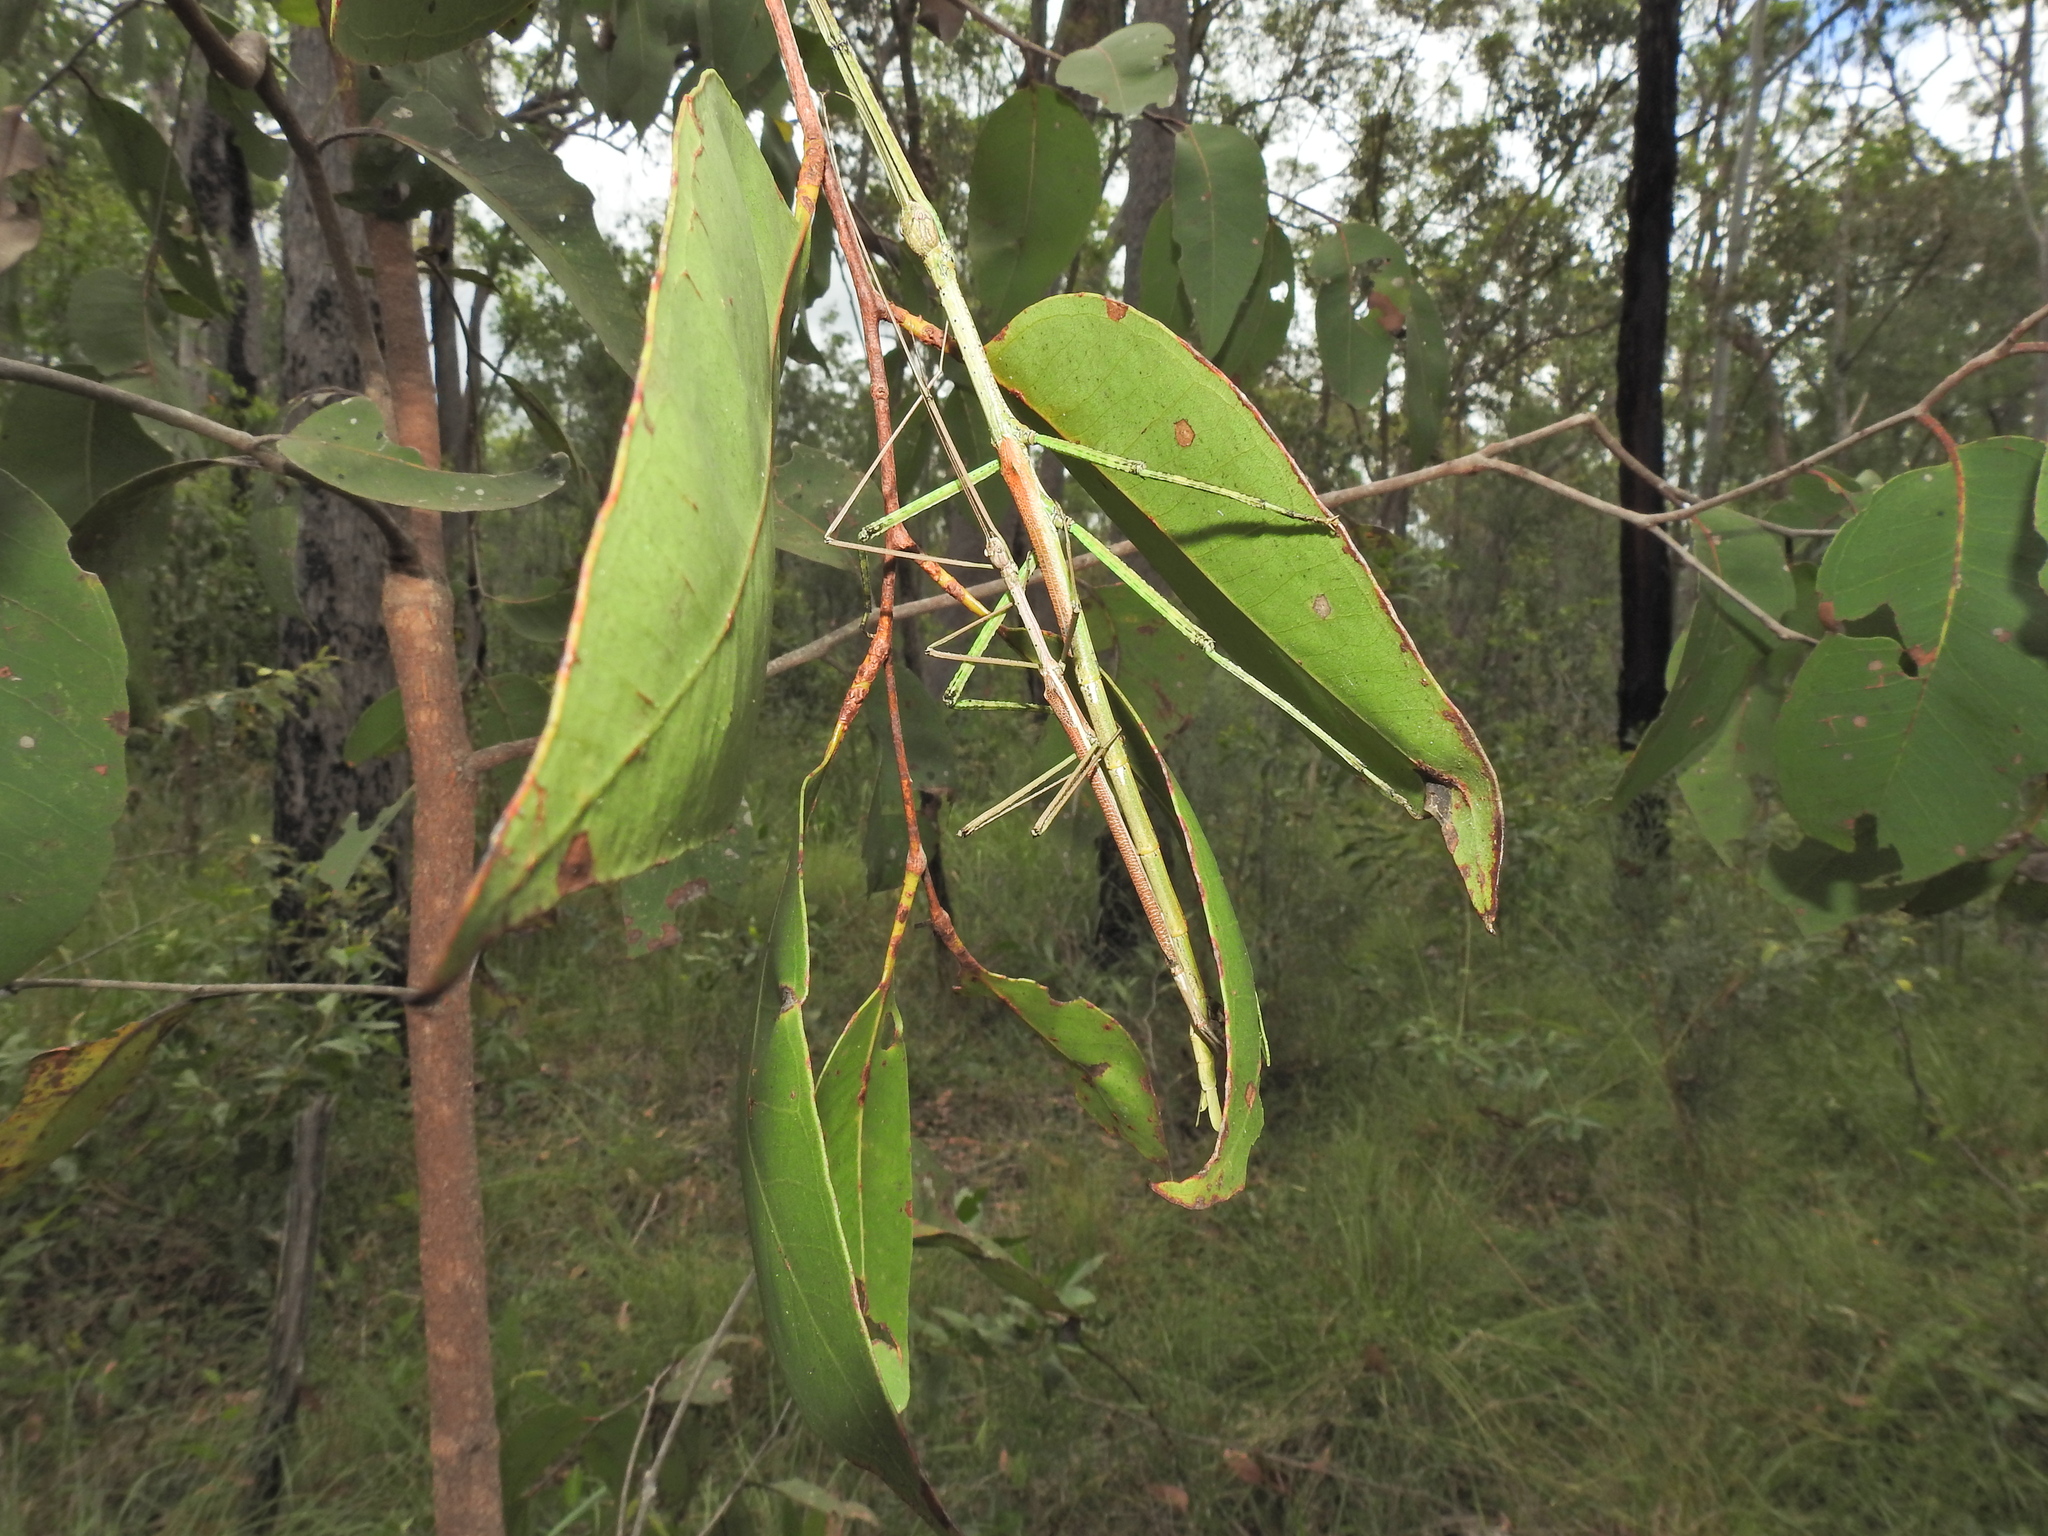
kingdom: Animalia
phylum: Arthropoda
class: Insecta
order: Phasmida
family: Phasmatidae
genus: Anchiale
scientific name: Anchiale austrotessulata
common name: Tessellated stick-insect
